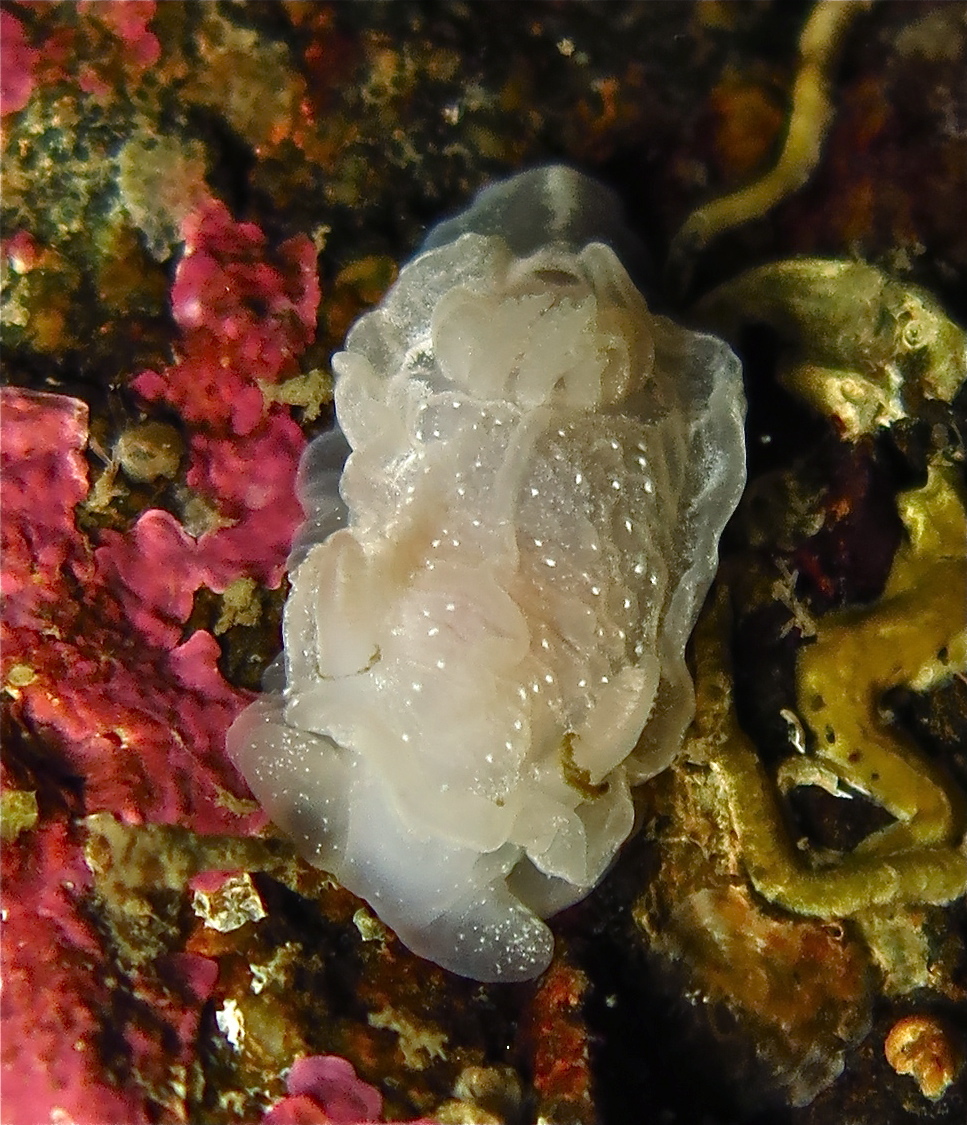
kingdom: Animalia
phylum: Mollusca
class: Gastropoda
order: Nudibranchia
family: Goniodorididae
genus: Okenia
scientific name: Okenia
